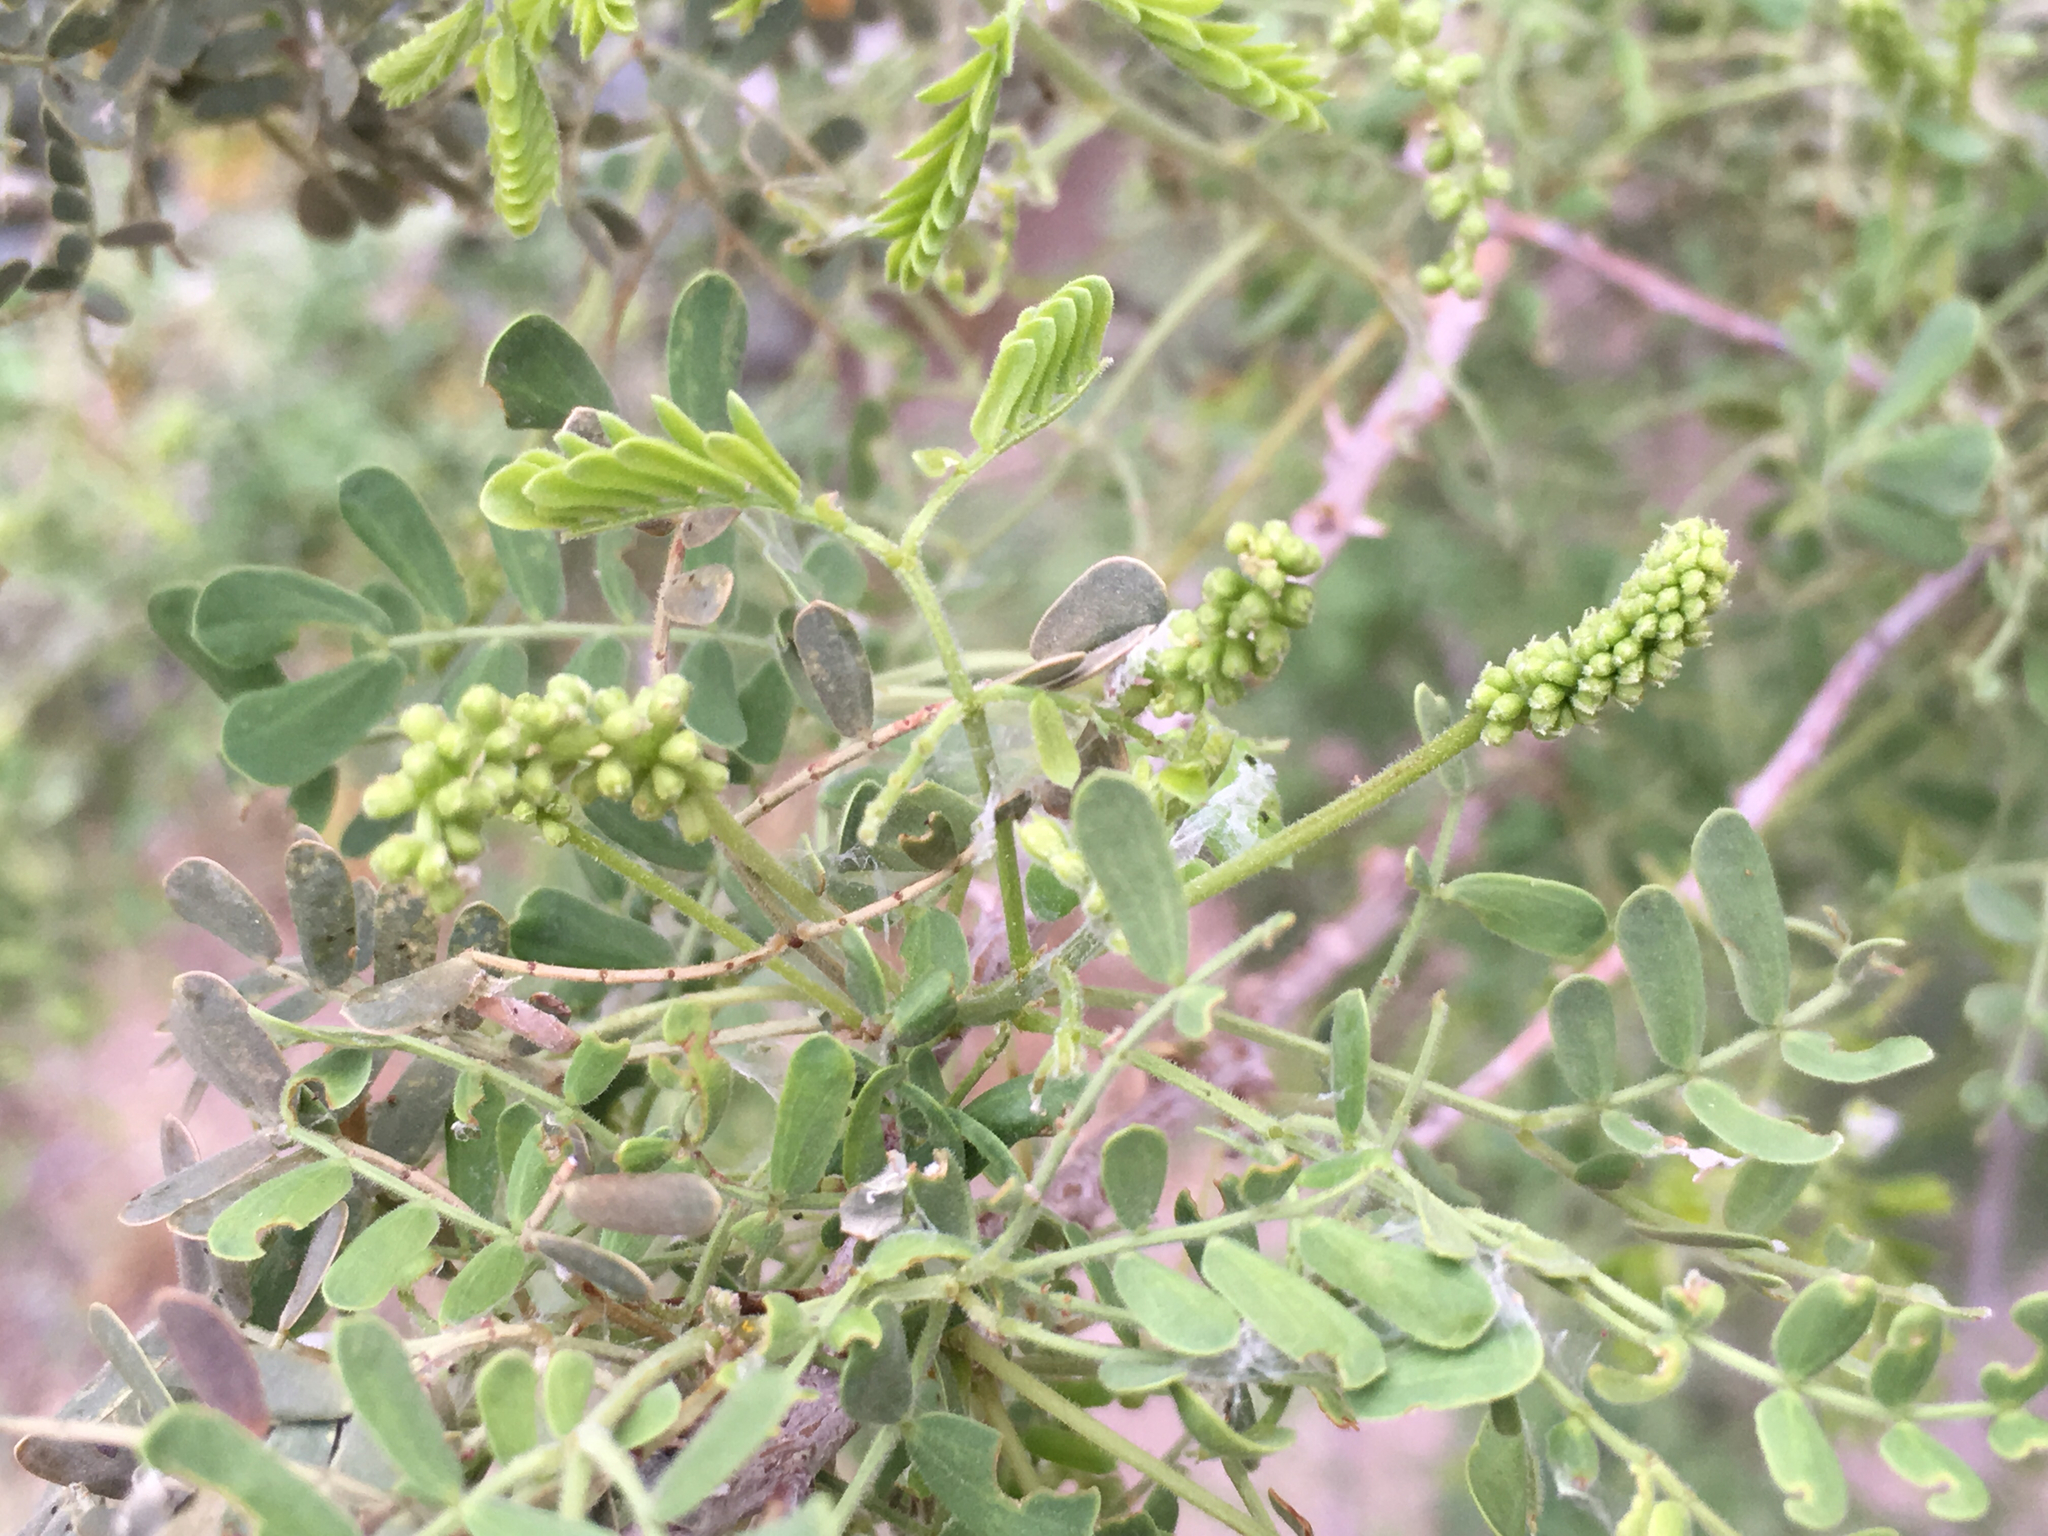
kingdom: Plantae
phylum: Tracheophyta
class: Magnoliopsida
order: Fabales
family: Fabaceae
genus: Senegalia
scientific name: Senegalia greggii
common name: Texas-mimosa
